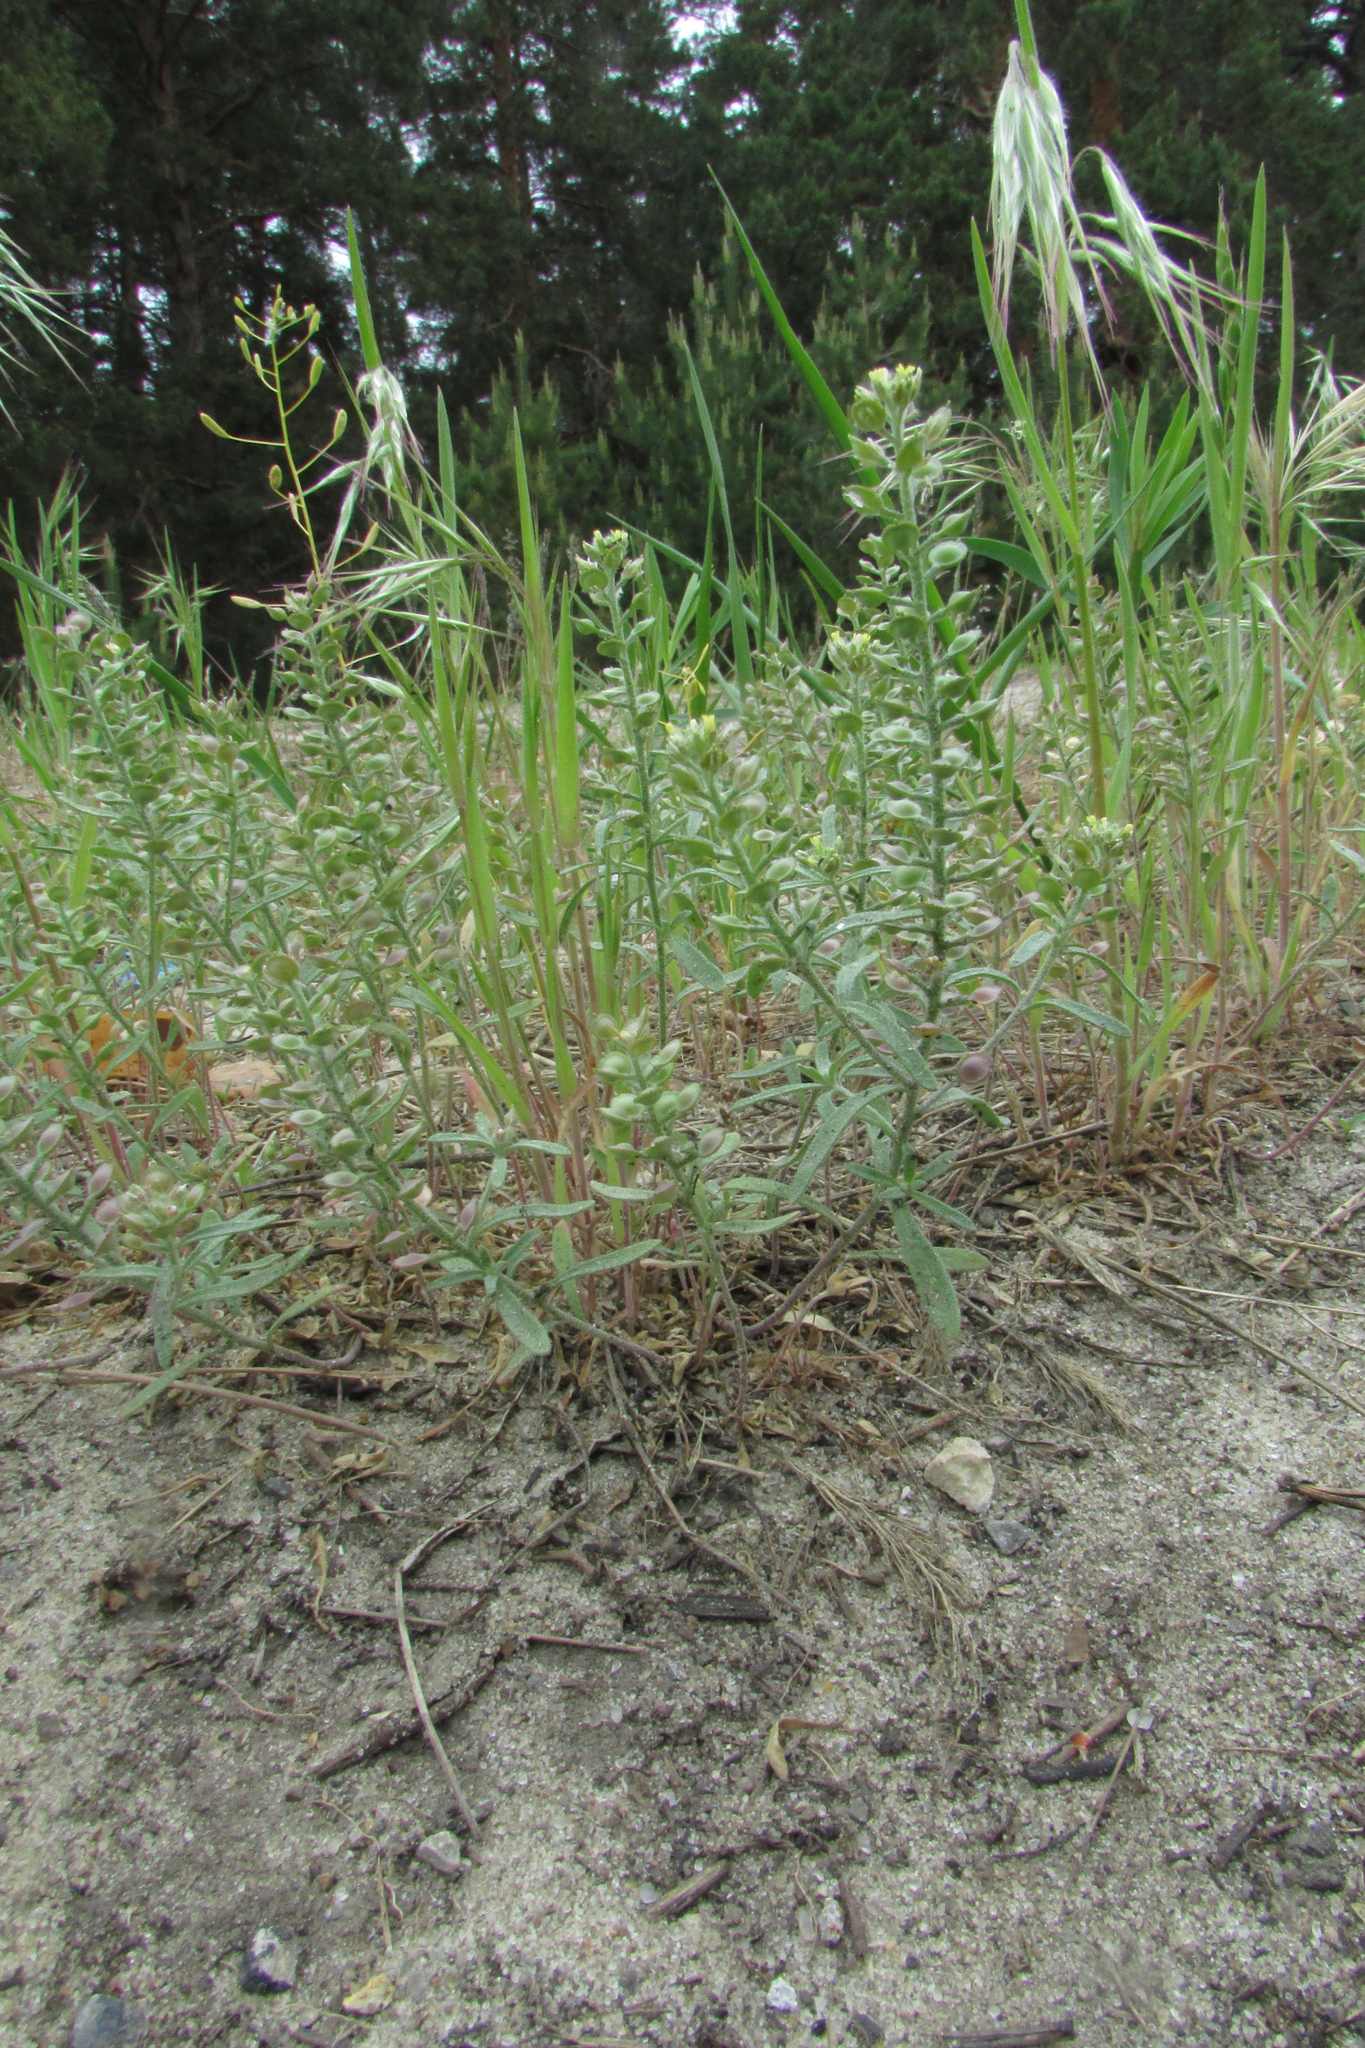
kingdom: Plantae
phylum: Tracheophyta
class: Magnoliopsida
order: Brassicales
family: Brassicaceae
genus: Alyssum
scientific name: Alyssum turkestanicum
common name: Desert alyssum
